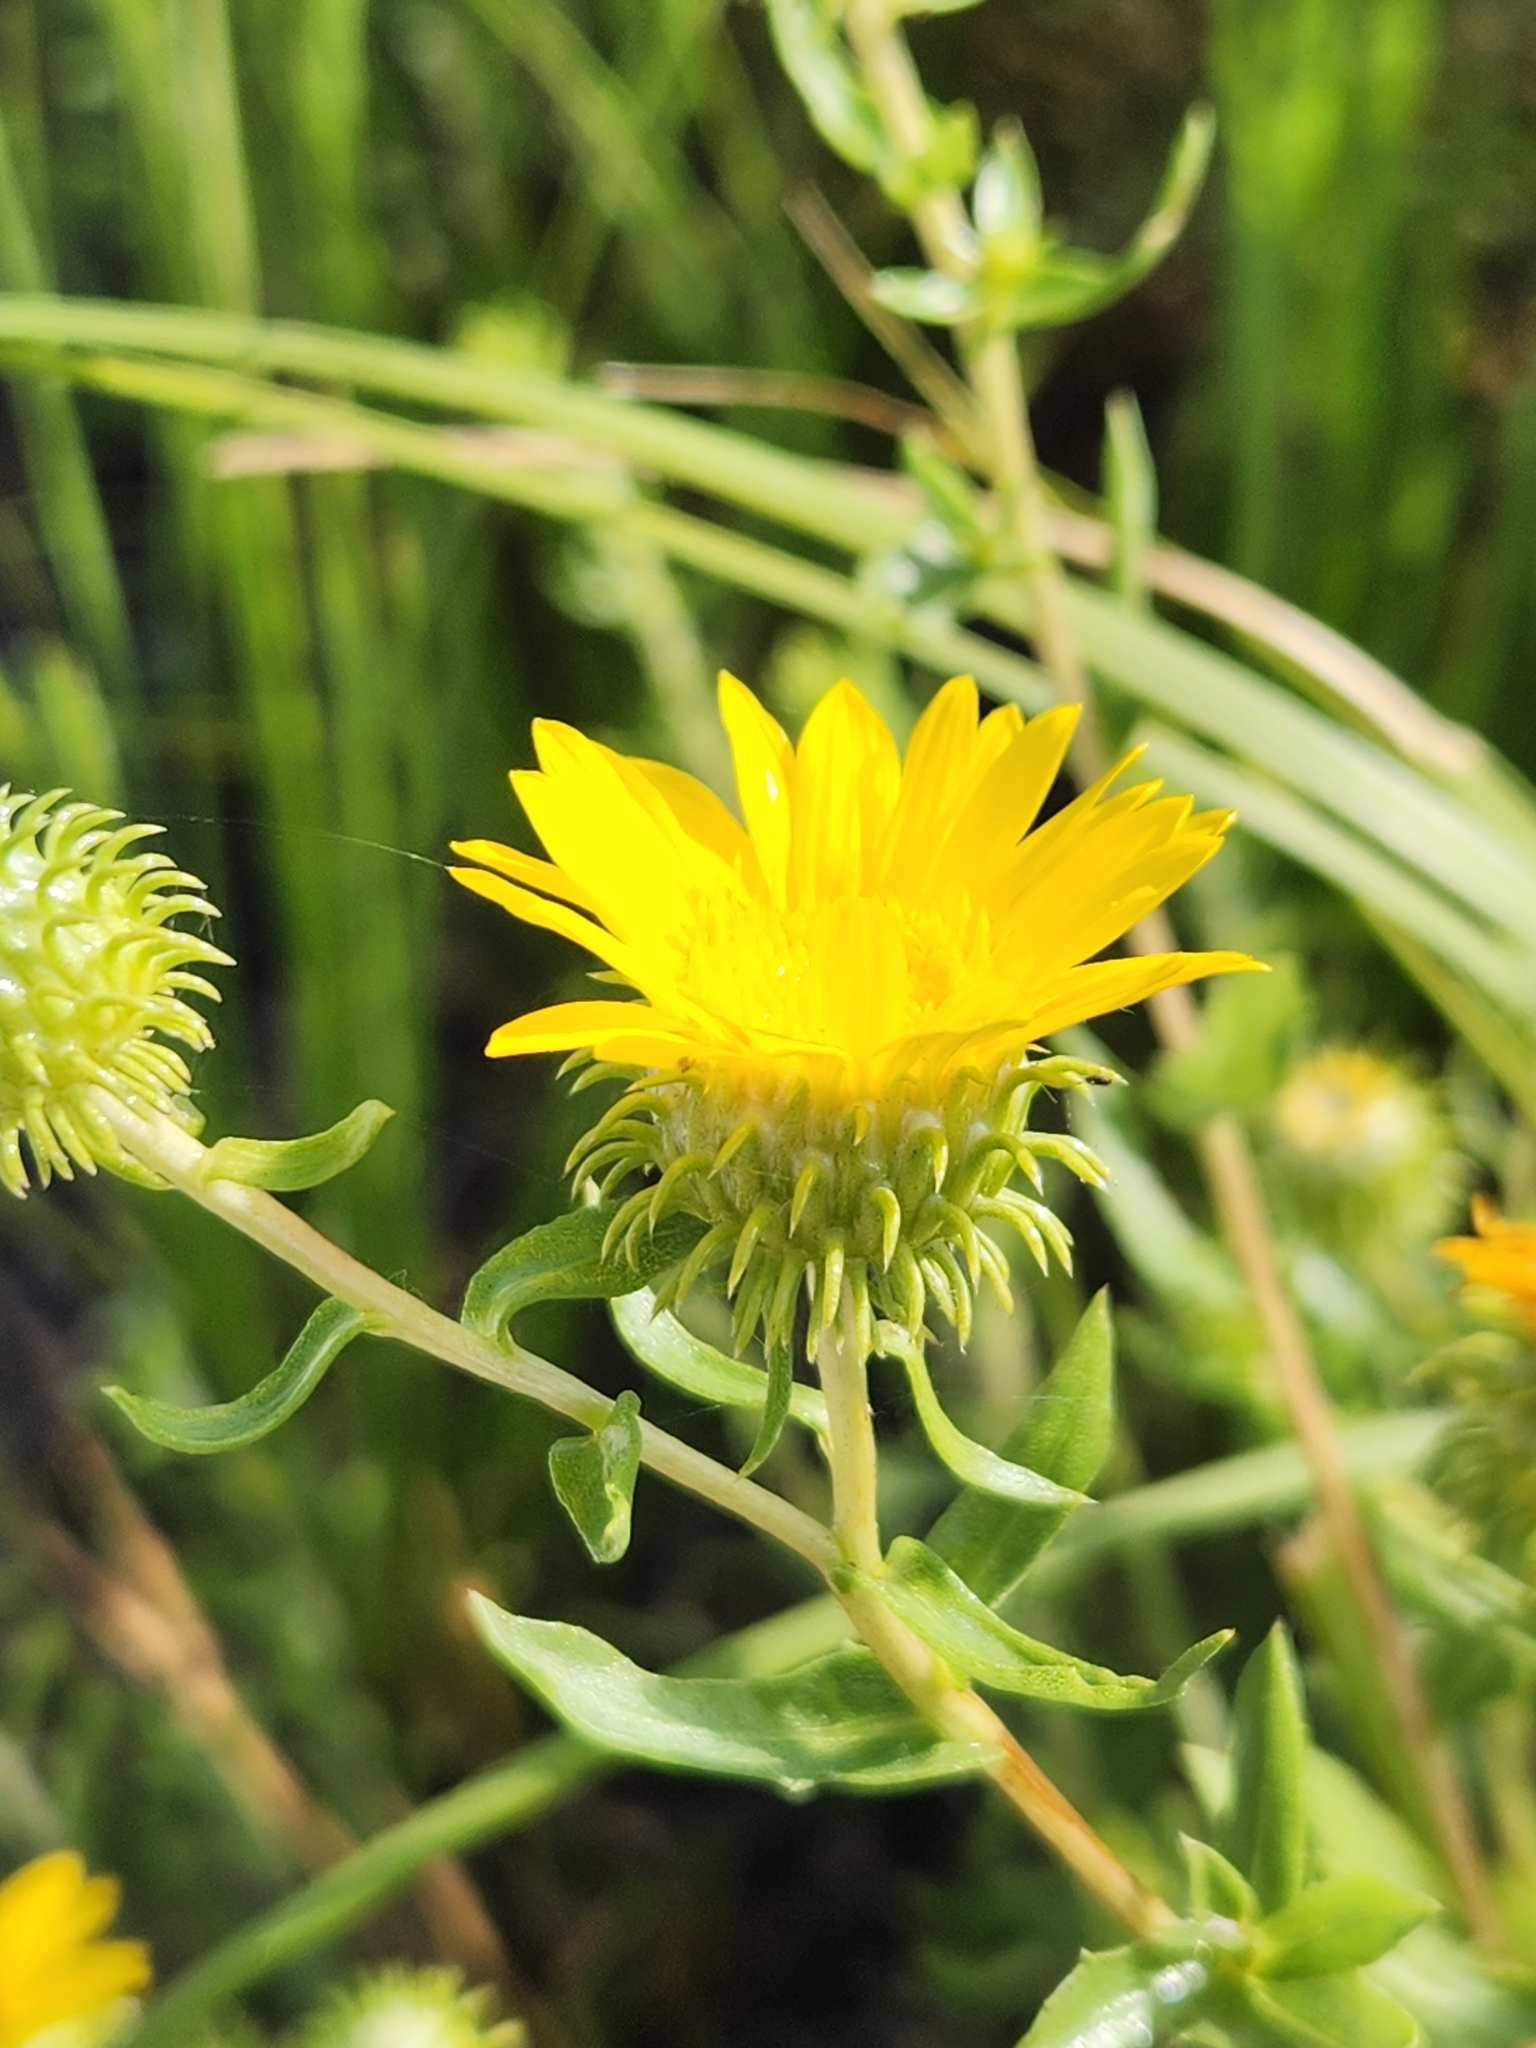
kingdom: Plantae
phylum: Tracheophyta
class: Magnoliopsida
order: Asterales
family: Asteraceae
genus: Grindelia
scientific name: Grindelia hirsutula
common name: Hairy gumweed
